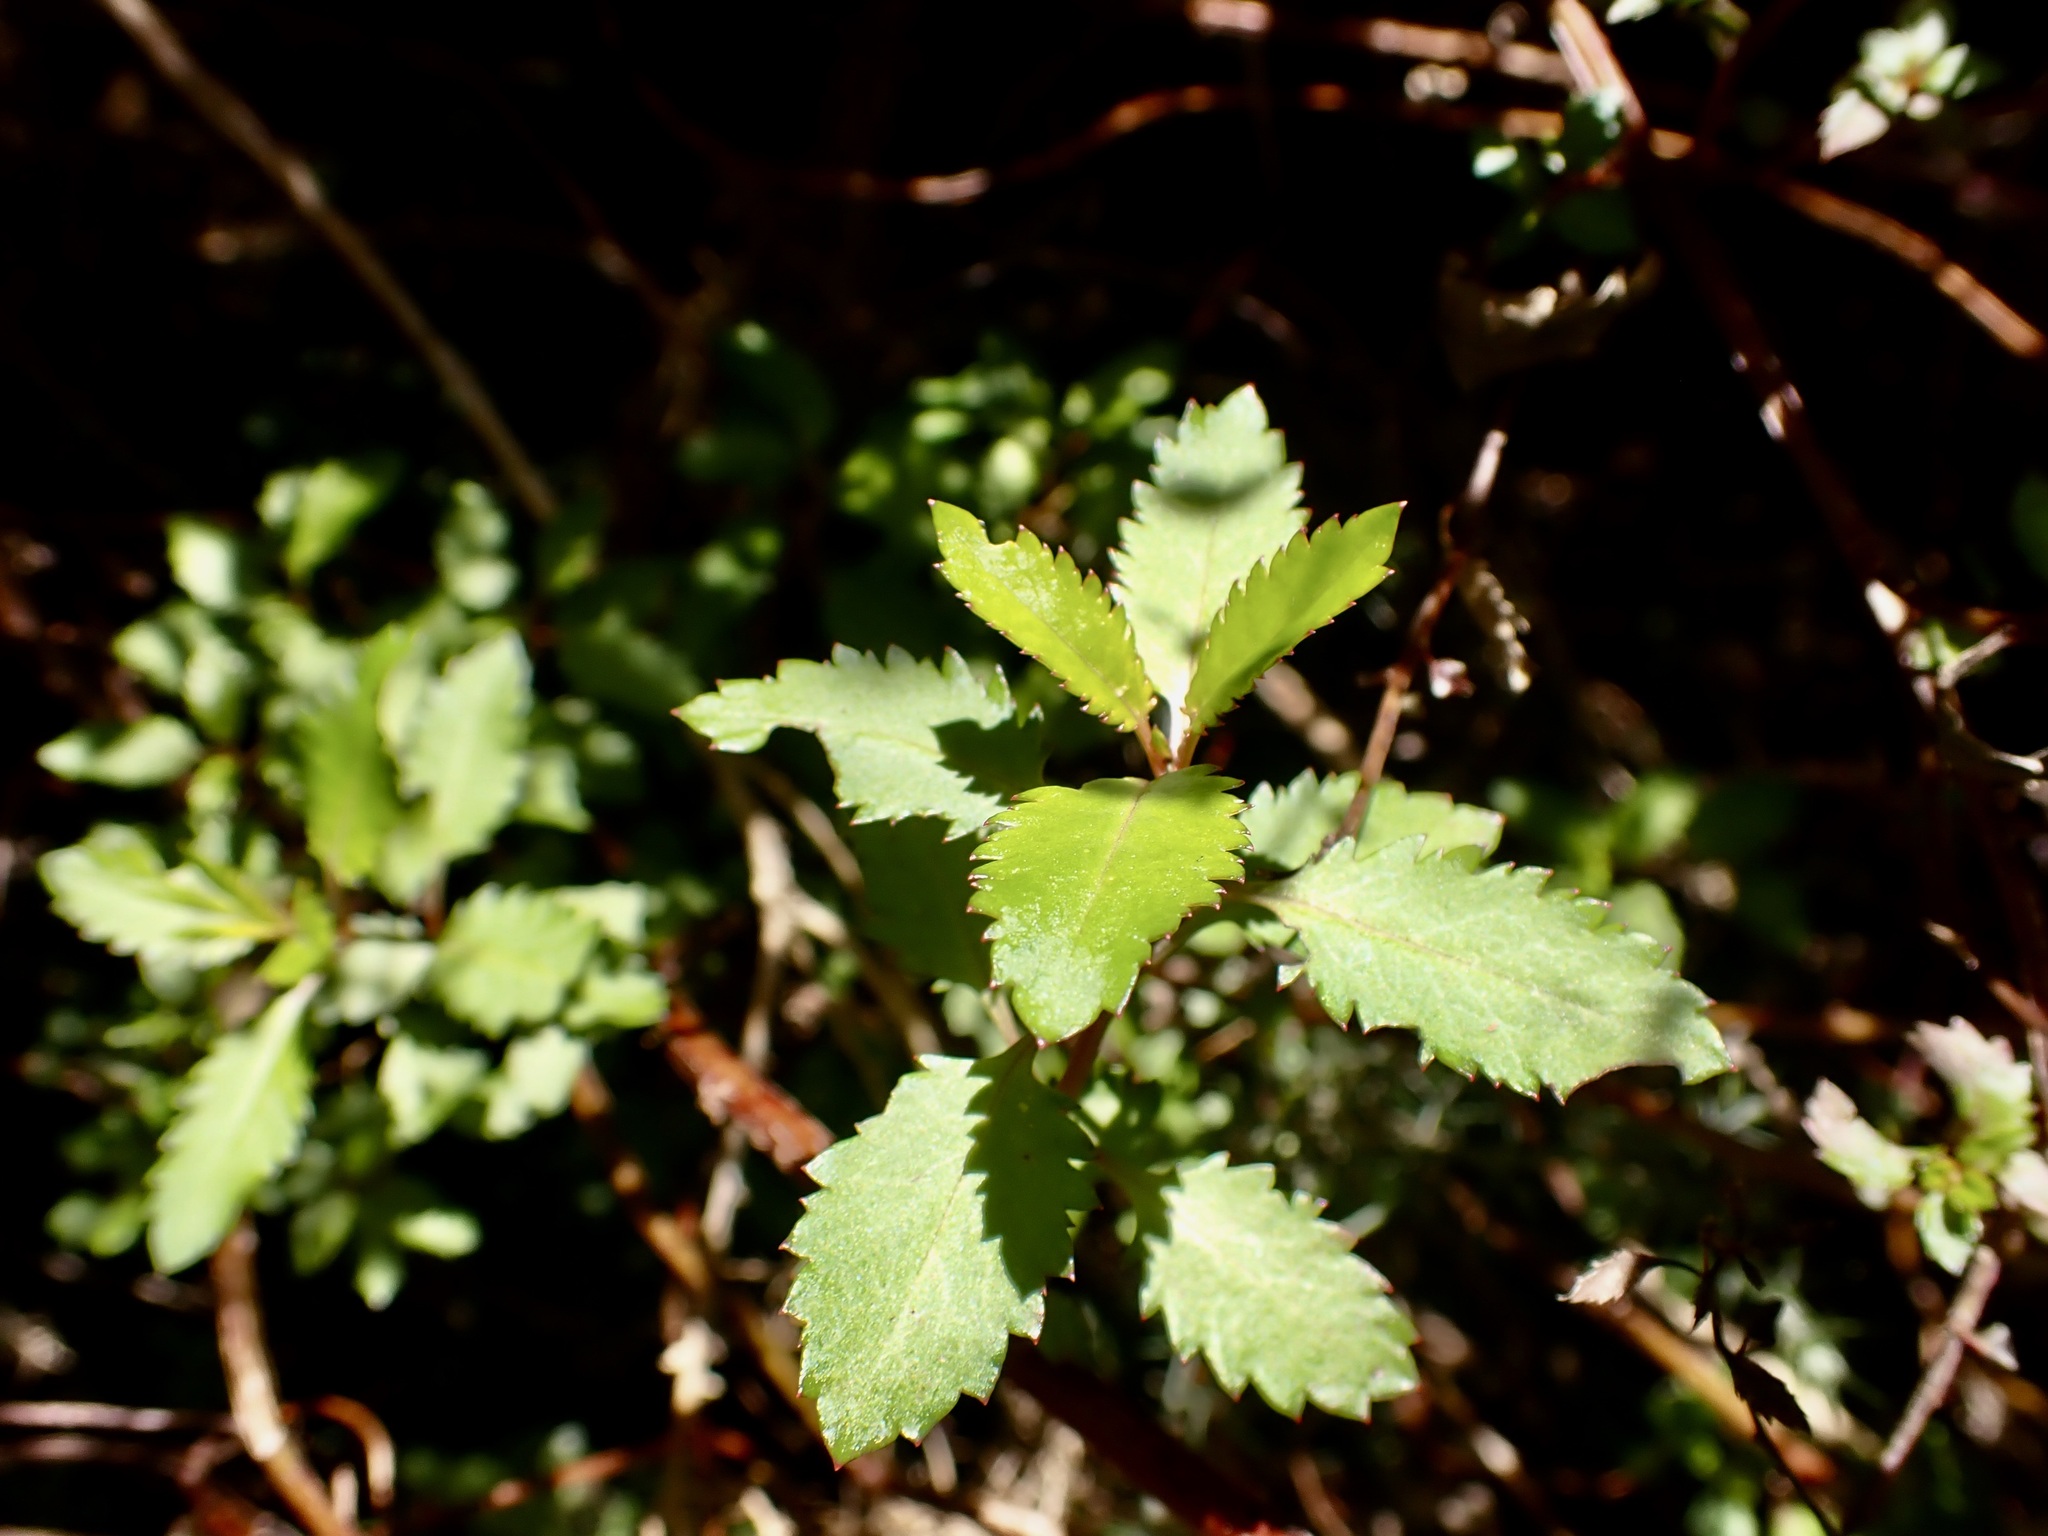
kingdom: Plantae
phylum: Tracheophyta
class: Magnoliopsida
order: Saxifragales
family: Haloragaceae
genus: Haloragis
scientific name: Haloragis erecta
